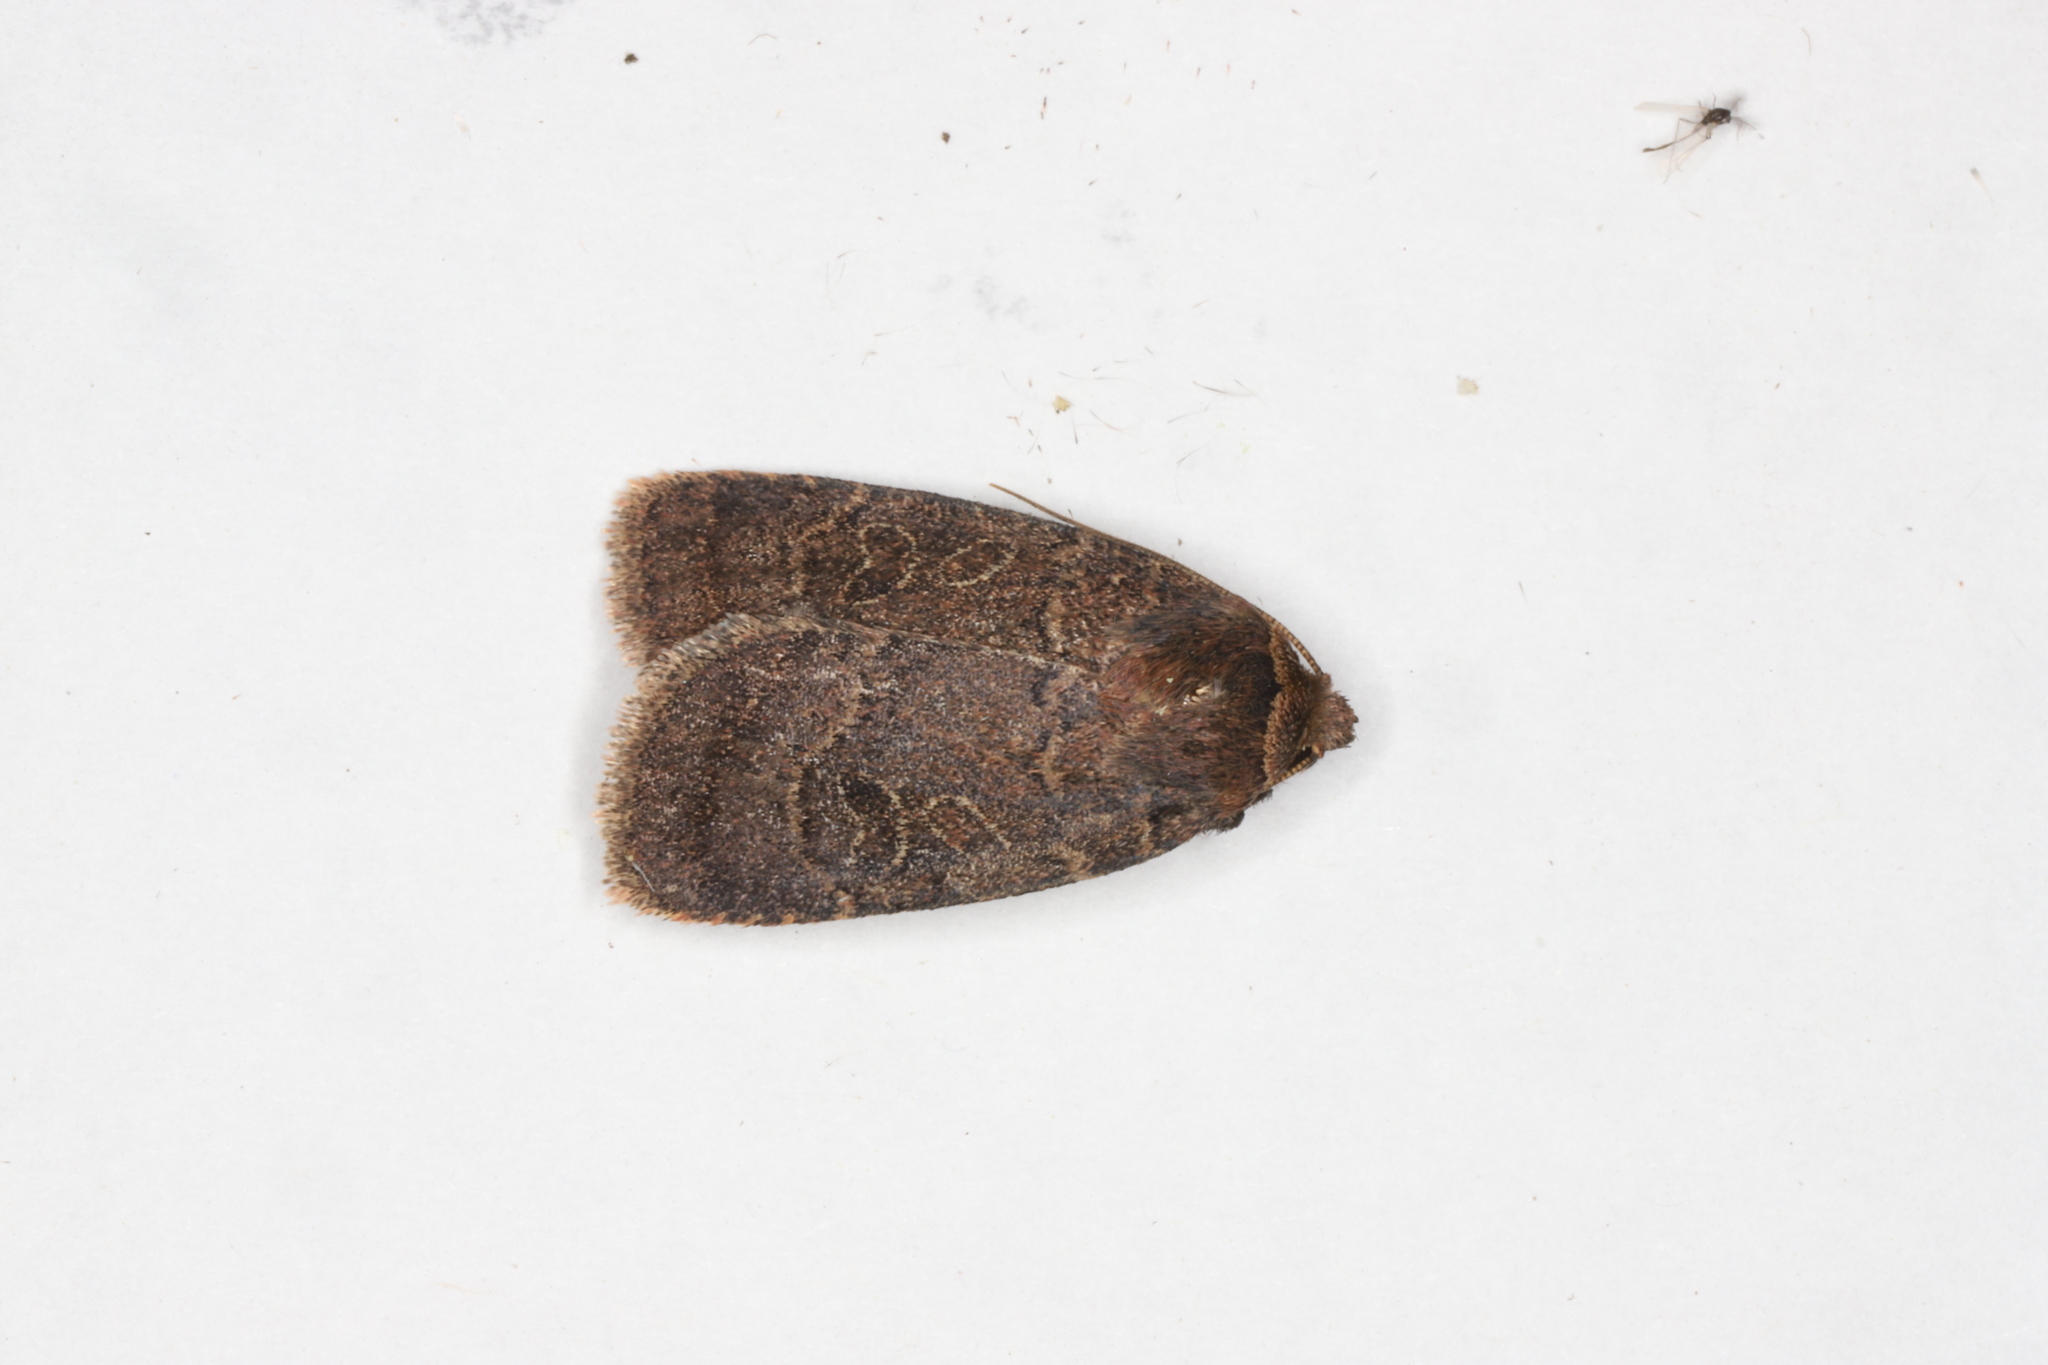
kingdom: Animalia
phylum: Arthropoda
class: Insecta
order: Lepidoptera
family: Noctuidae
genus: Orthodes
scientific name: Orthodes cynica
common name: Cynical quaker
